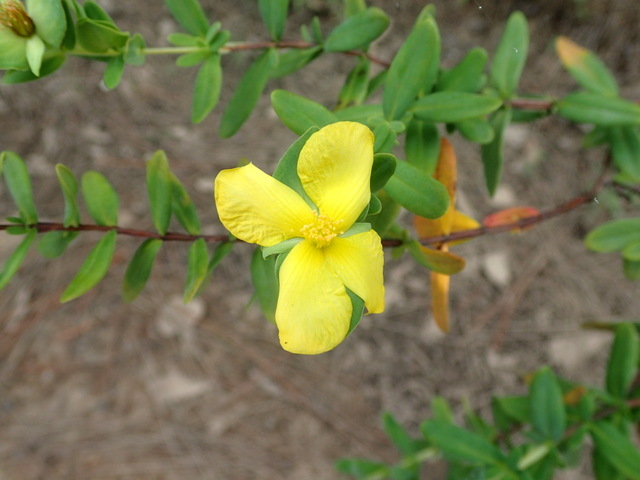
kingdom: Plantae
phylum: Tracheophyta
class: Magnoliopsida
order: Malpighiales
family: Hypericaceae
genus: Hypericum
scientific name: Hypericum crux-andreae
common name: St.-peter's-wort
